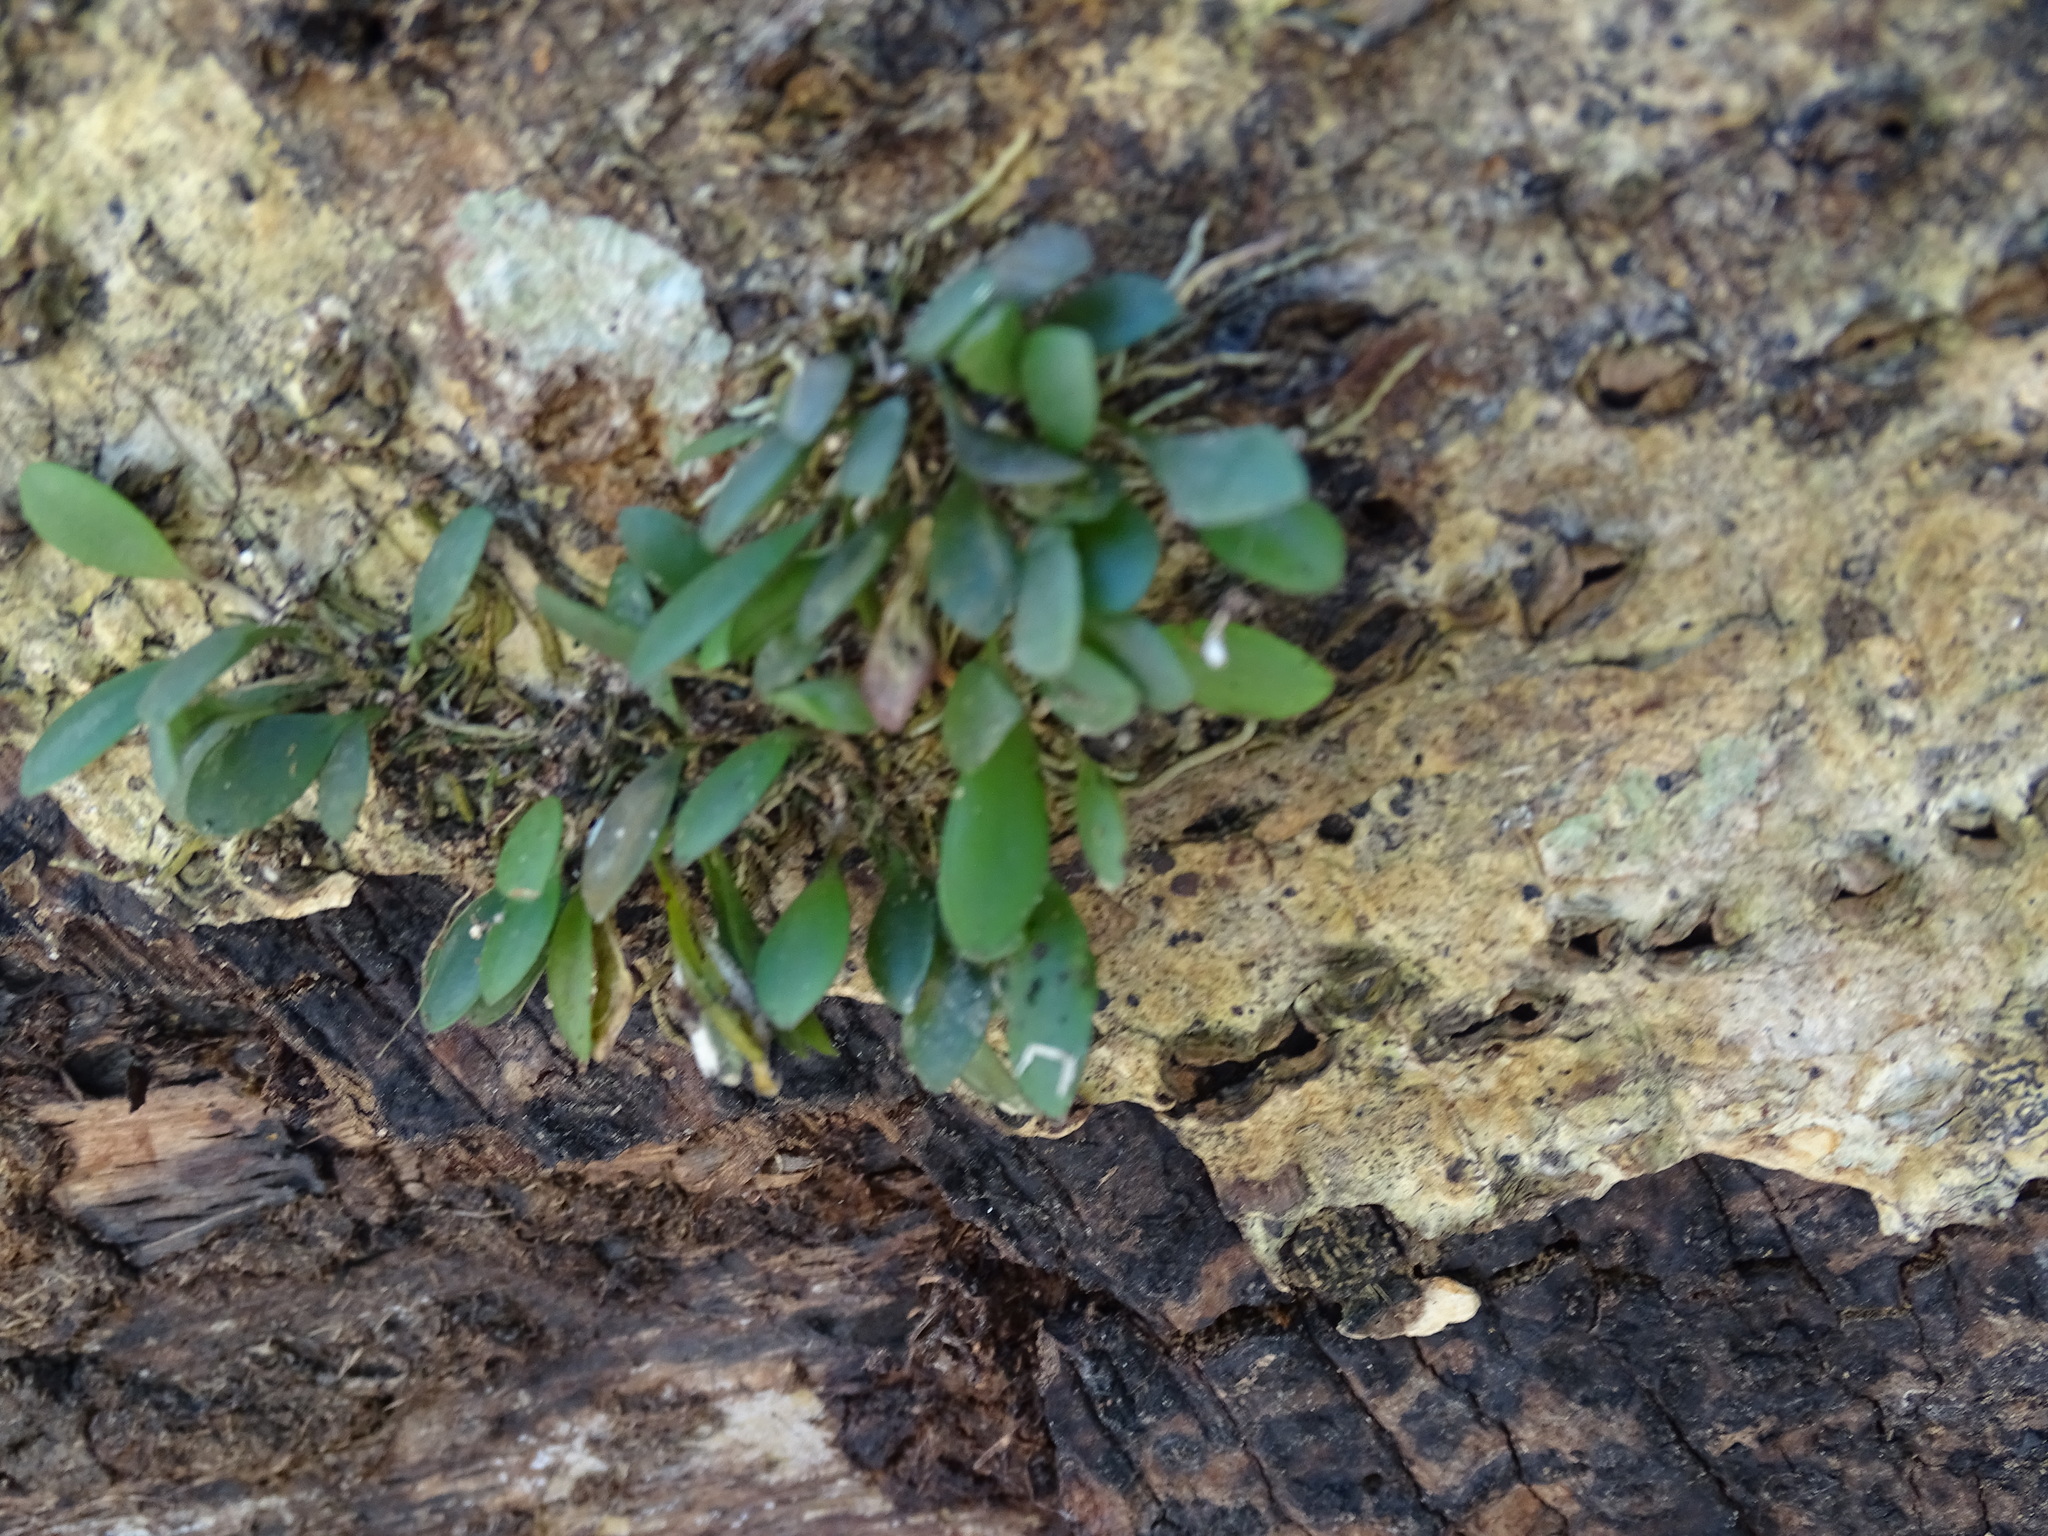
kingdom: Plantae
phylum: Tracheophyta
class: Liliopsida
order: Asparagales
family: Orchidaceae
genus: Specklinia
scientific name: Specklinia picta
